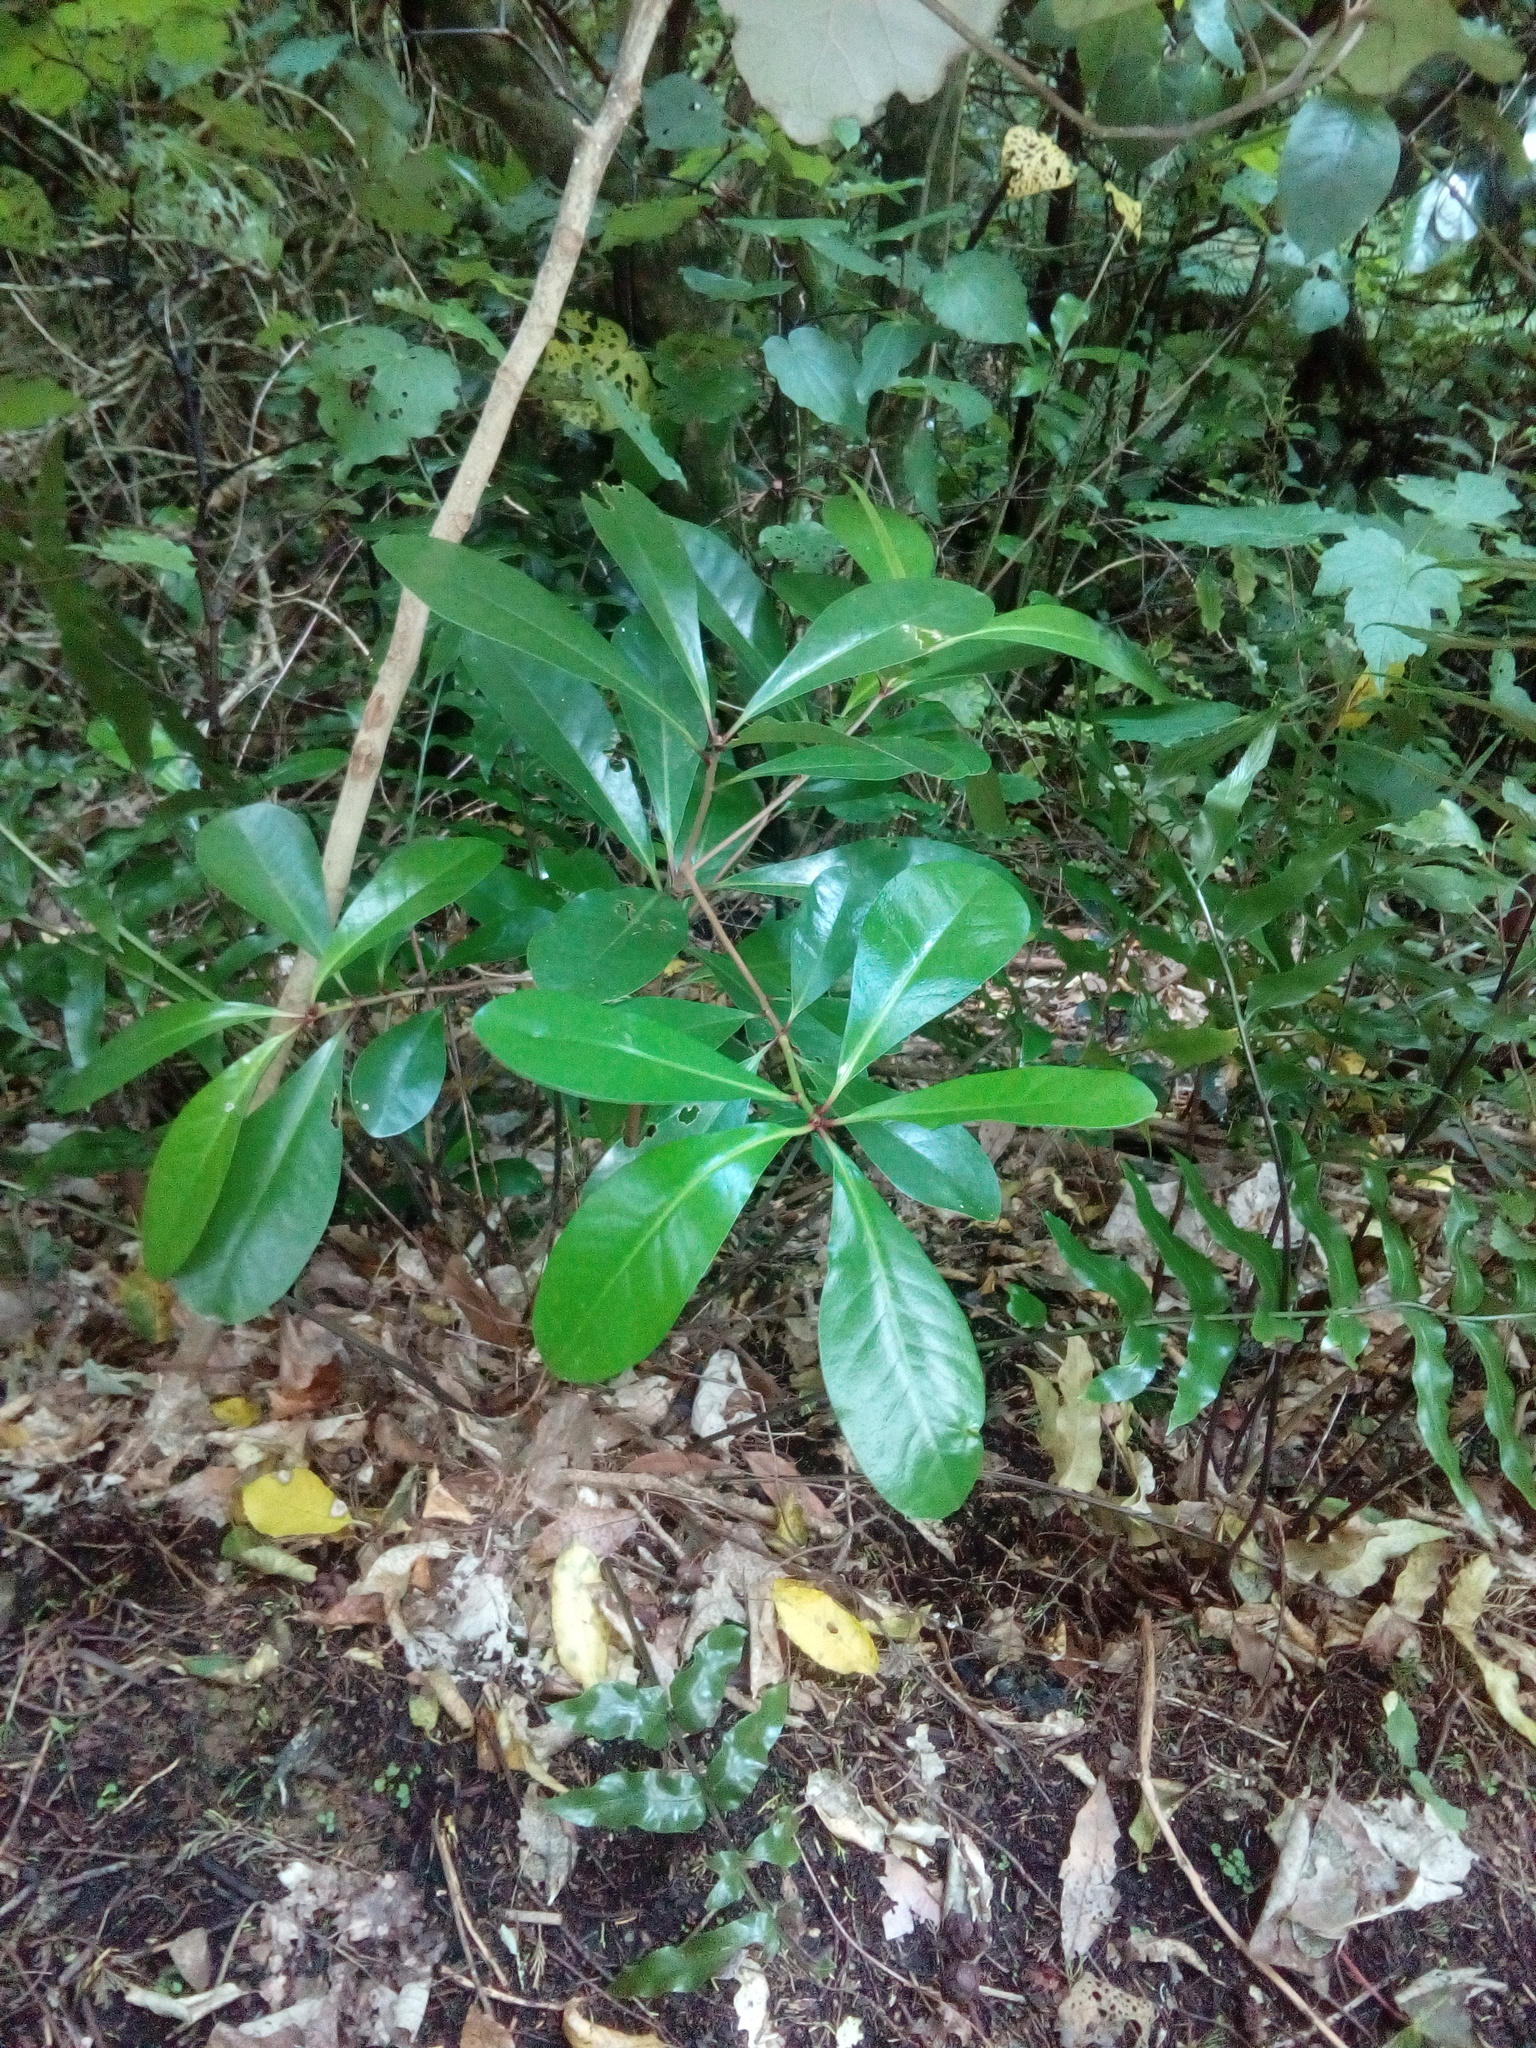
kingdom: Plantae
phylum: Tracheophyta
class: Magnoliopsida
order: Cucurbitales
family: Corynocarpaceae
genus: Corynocarpus
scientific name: Corynocarpus laevigatus
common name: New zealand laurel
